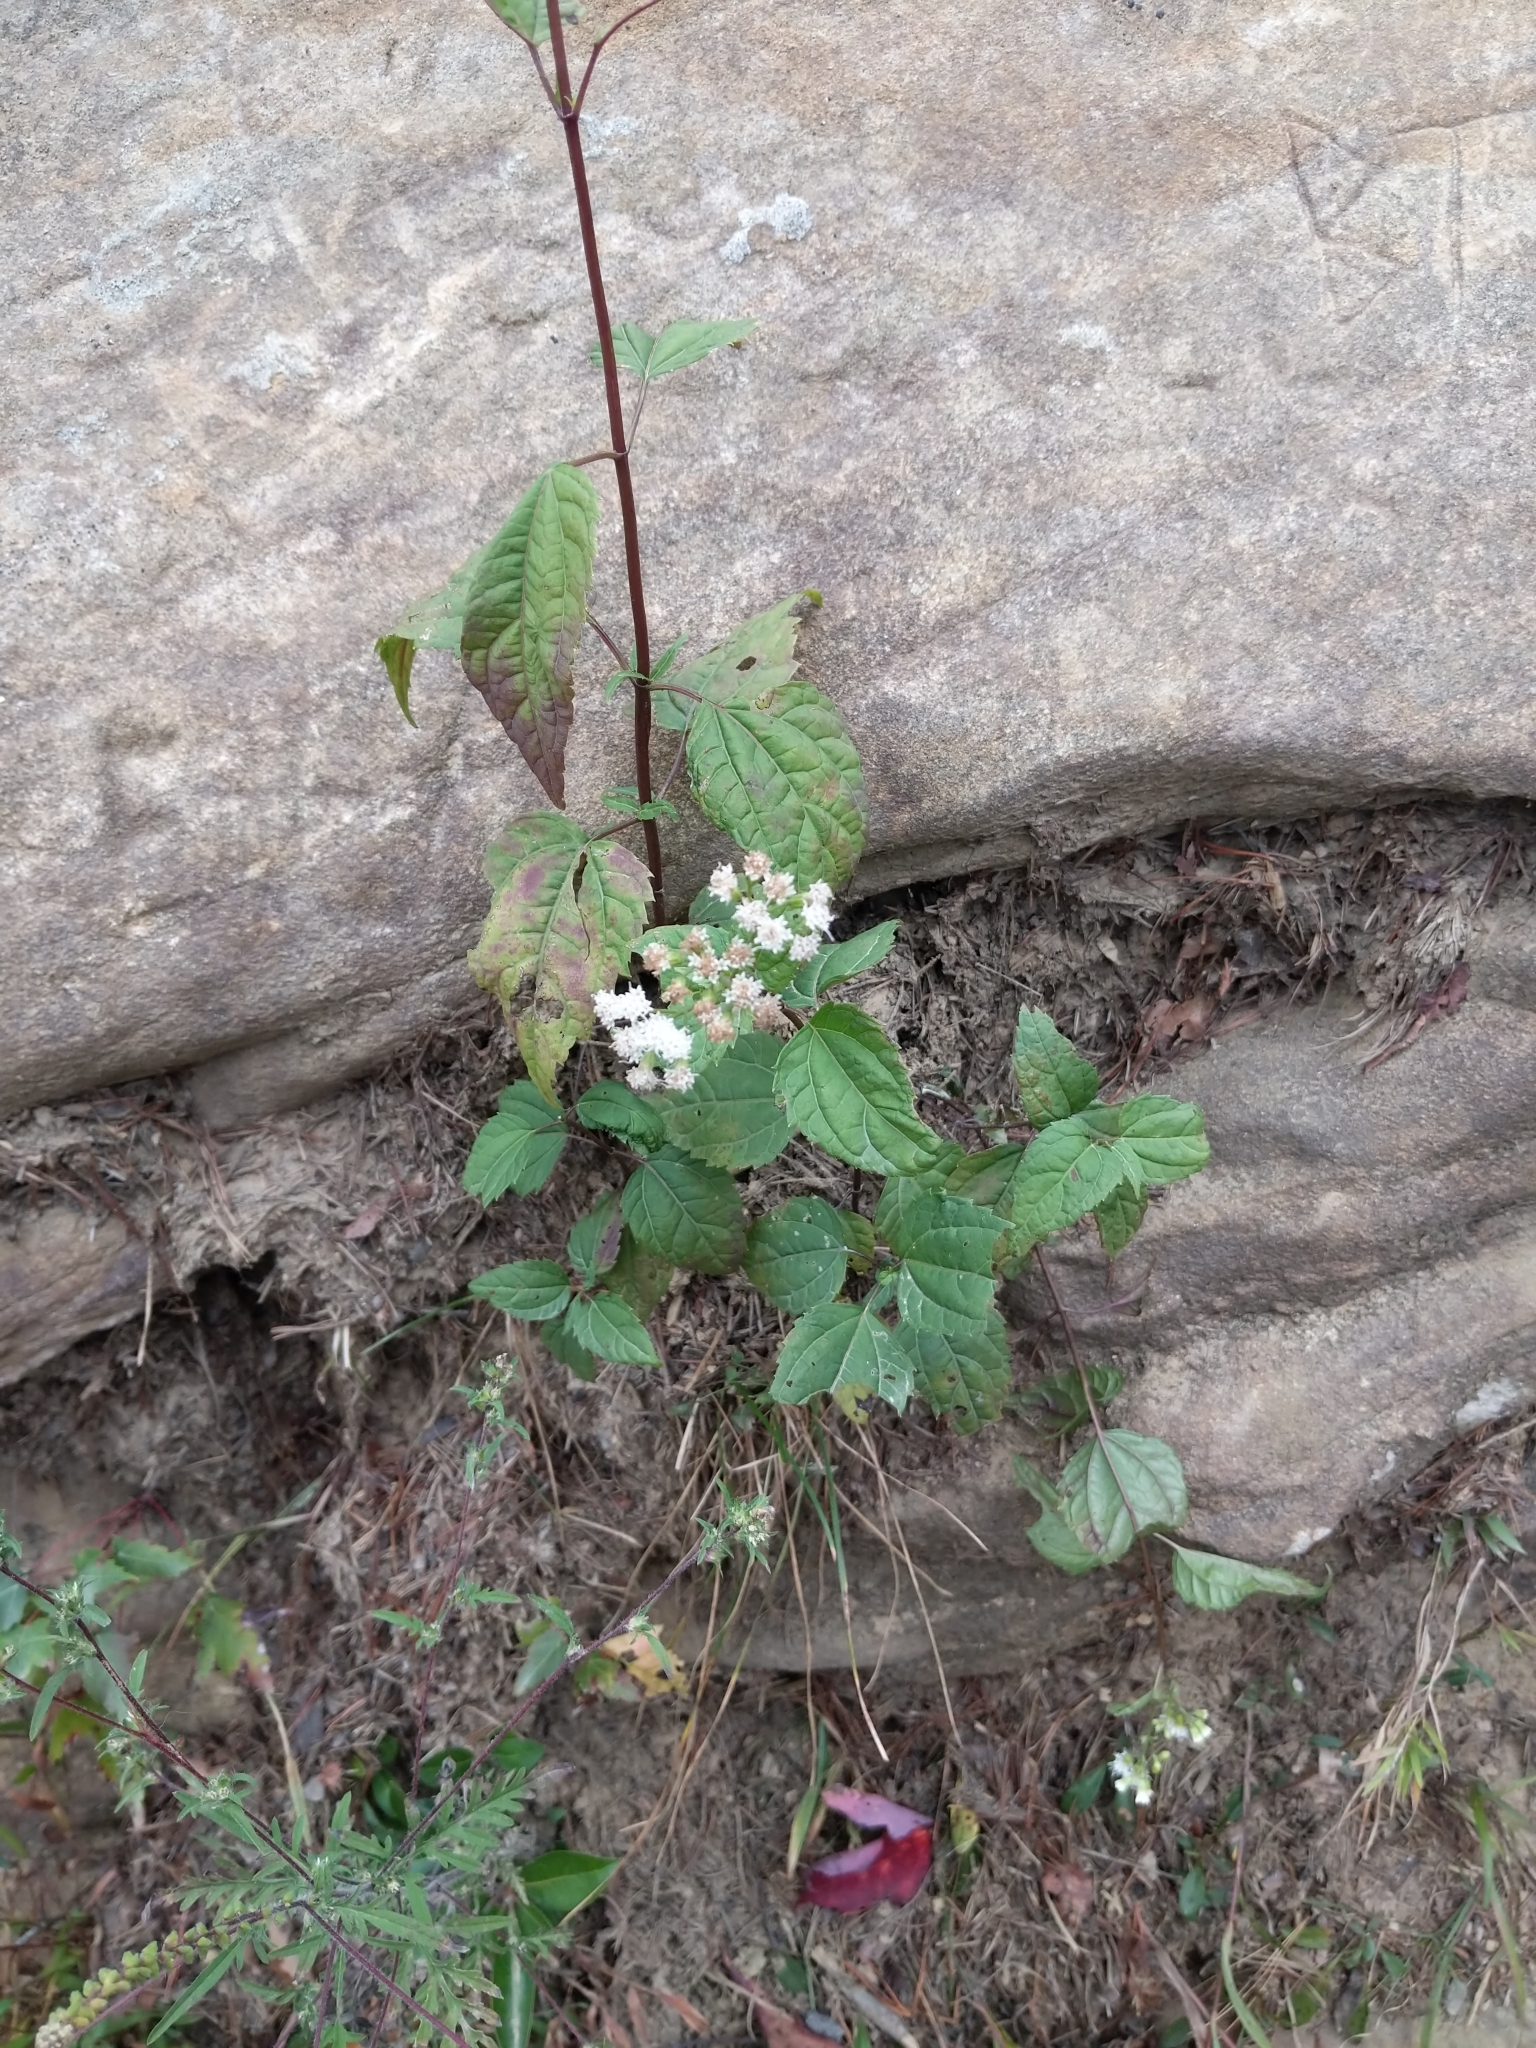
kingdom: Plantae
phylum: Tracheophyta
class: Magnoliopsida
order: Asterales
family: Asteraceae
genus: Ageratina
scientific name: Ageratina altissima
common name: White snakeroot
